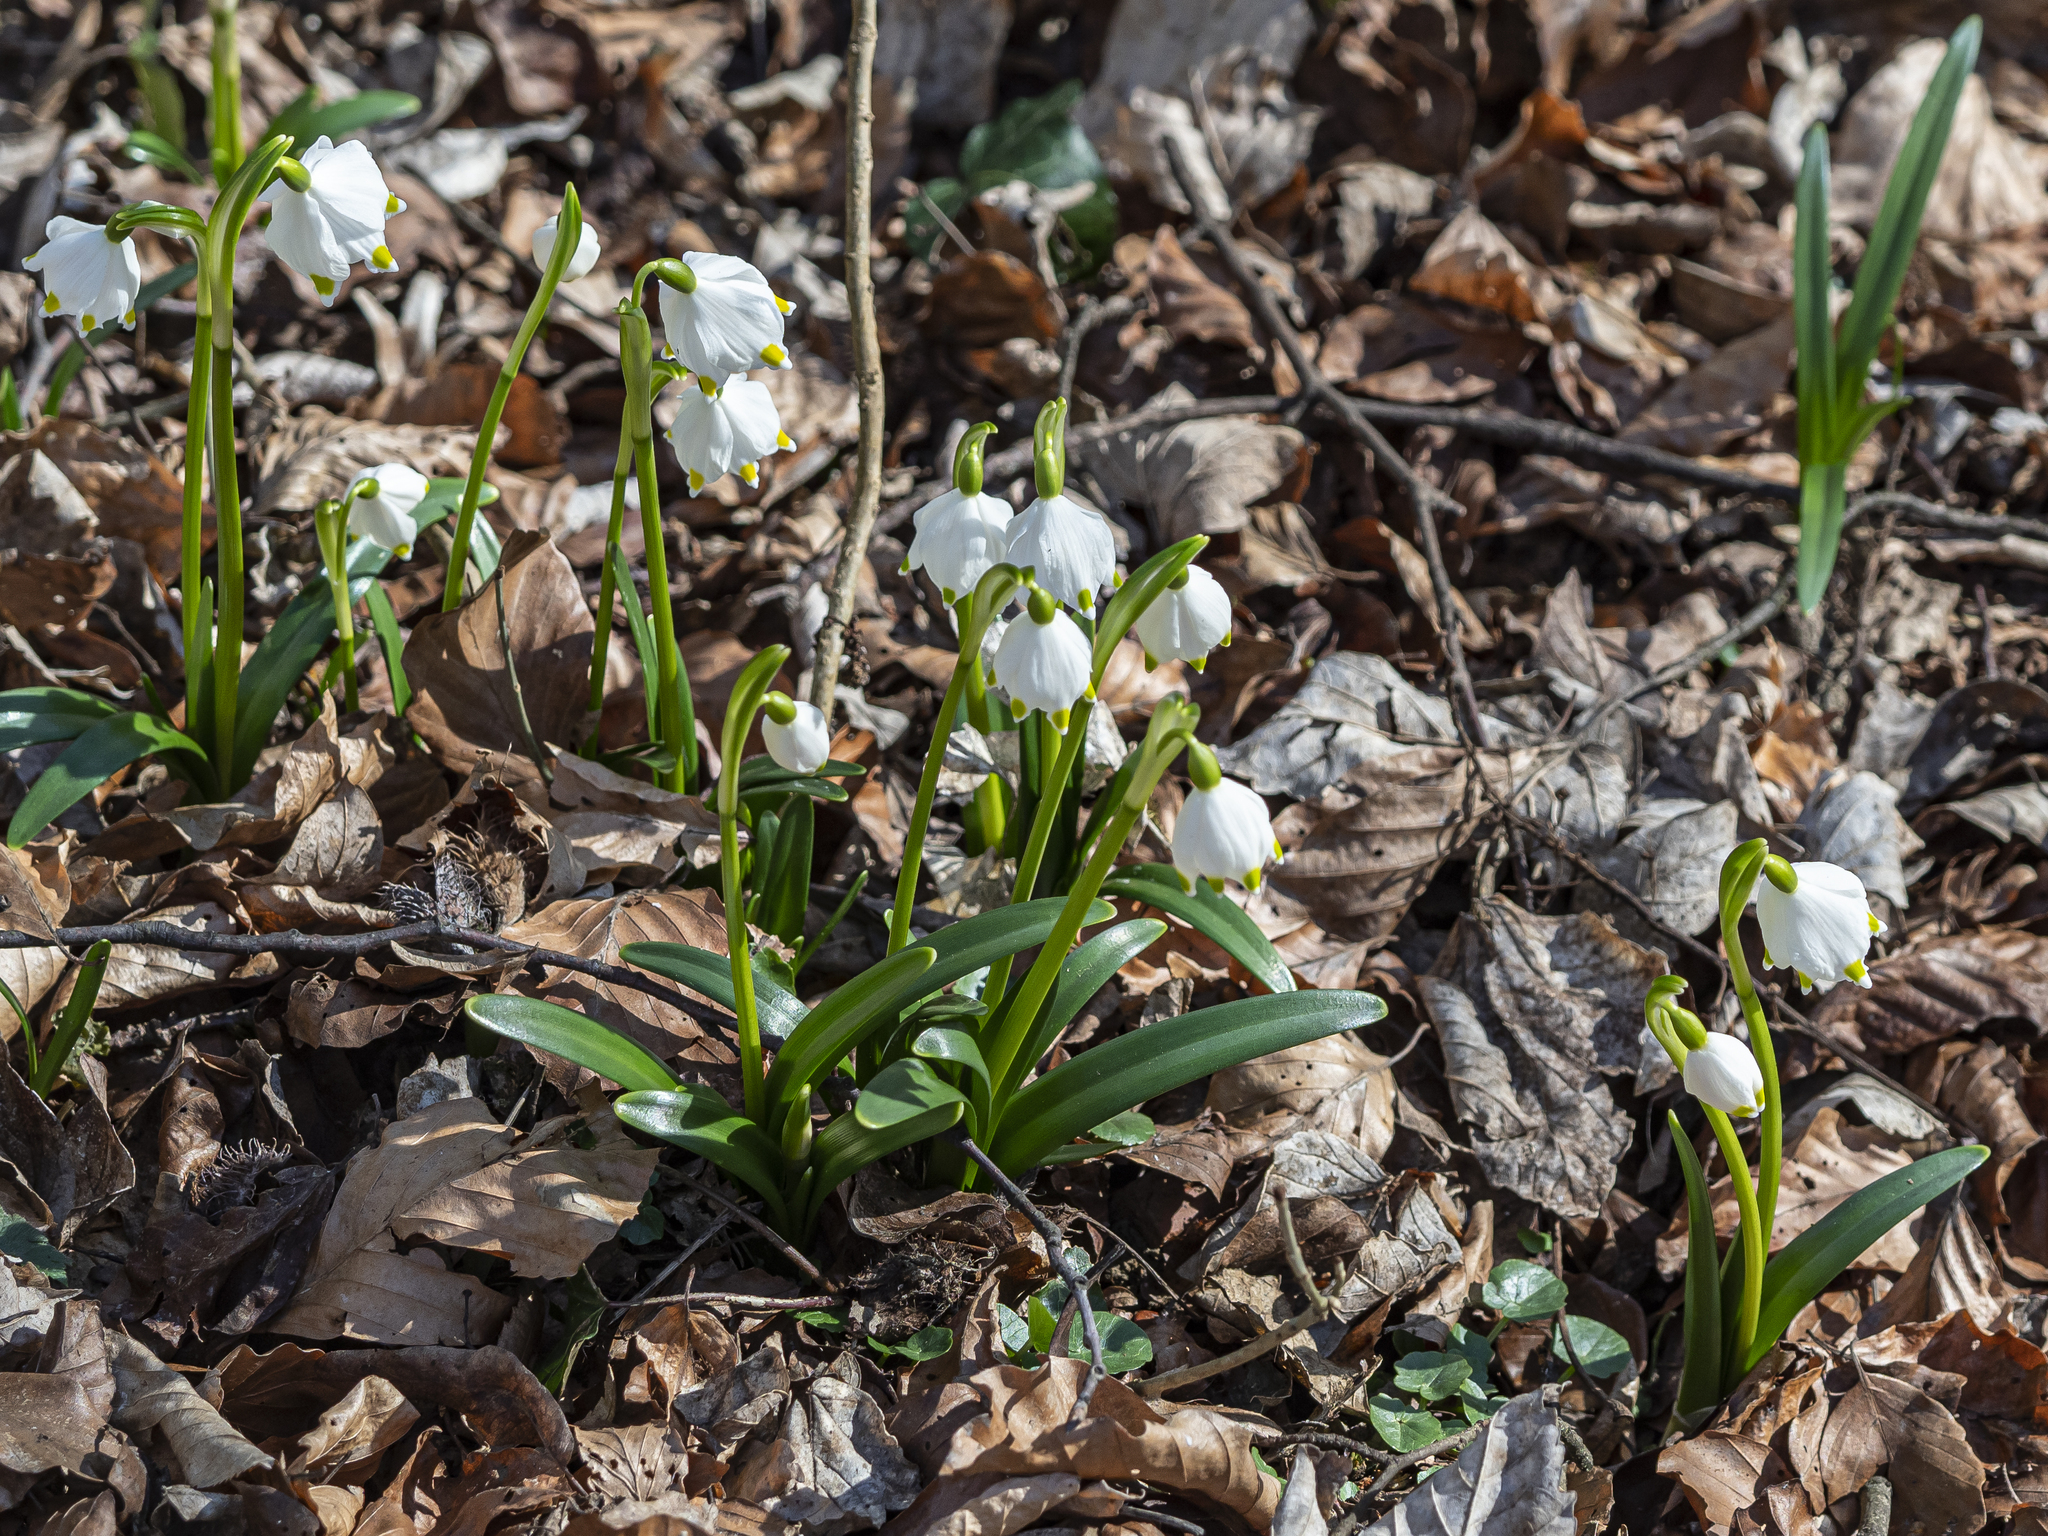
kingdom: Plantae
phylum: Tracheophyta
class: Liliopsida
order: Asparagales
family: Amaryllidaceae
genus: Leucojum
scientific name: Leucojum vernum
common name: Spring snowflake
